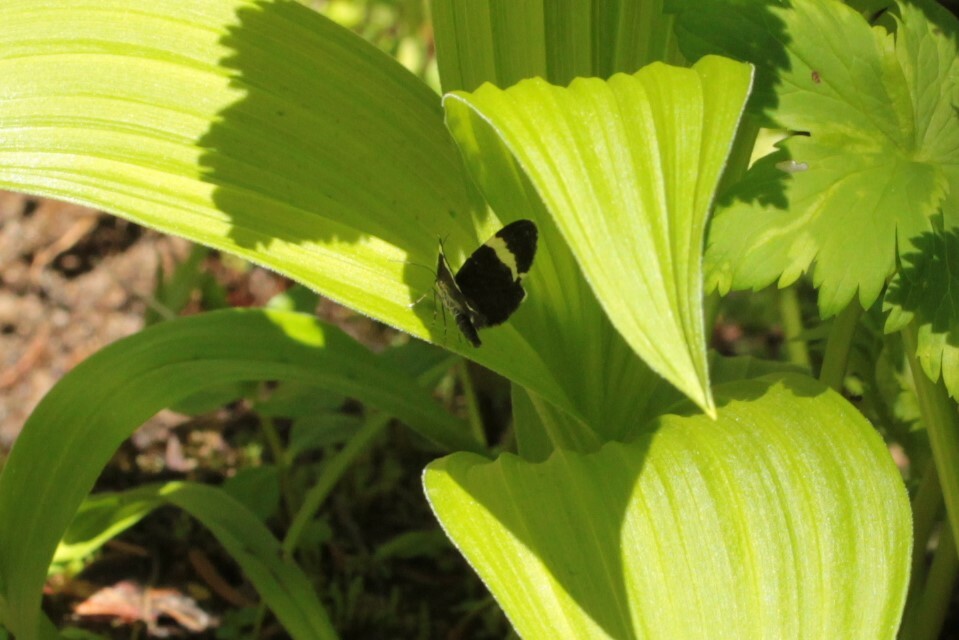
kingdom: Animalia
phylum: Arthropoda
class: Insecta
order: Lepidoptera
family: Geometridae
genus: Trichodezia
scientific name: Trichodezia albovittata
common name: White striped black
